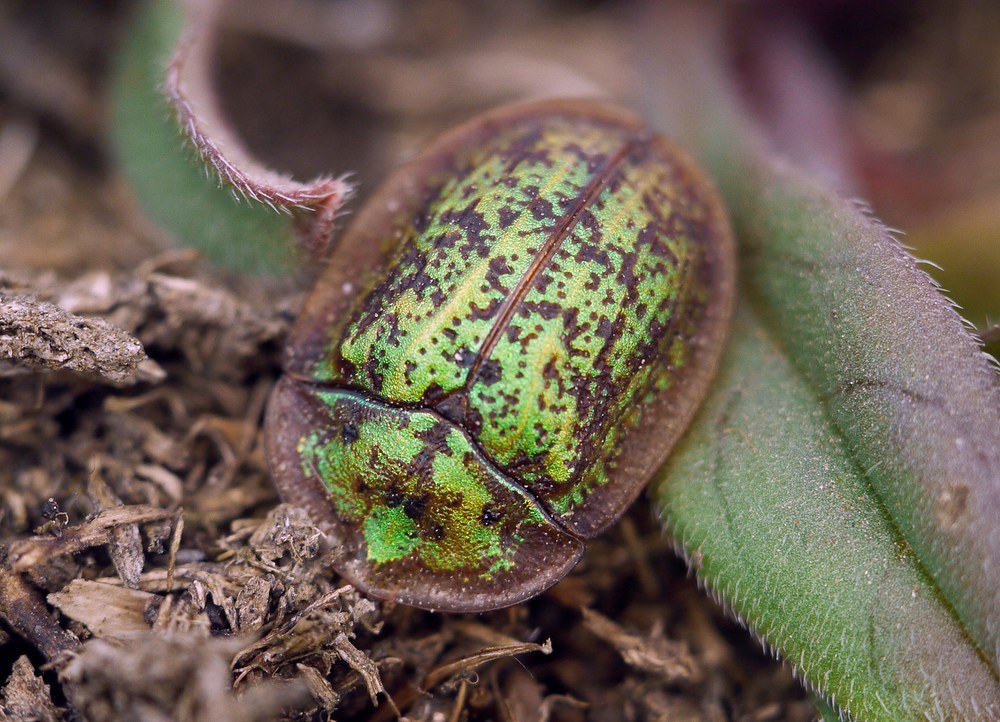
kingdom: Animalia
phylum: Arthropoda
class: Insecta
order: Coleoptera
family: Chrysomelidae
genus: Cassida
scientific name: Cassida canaliculata
